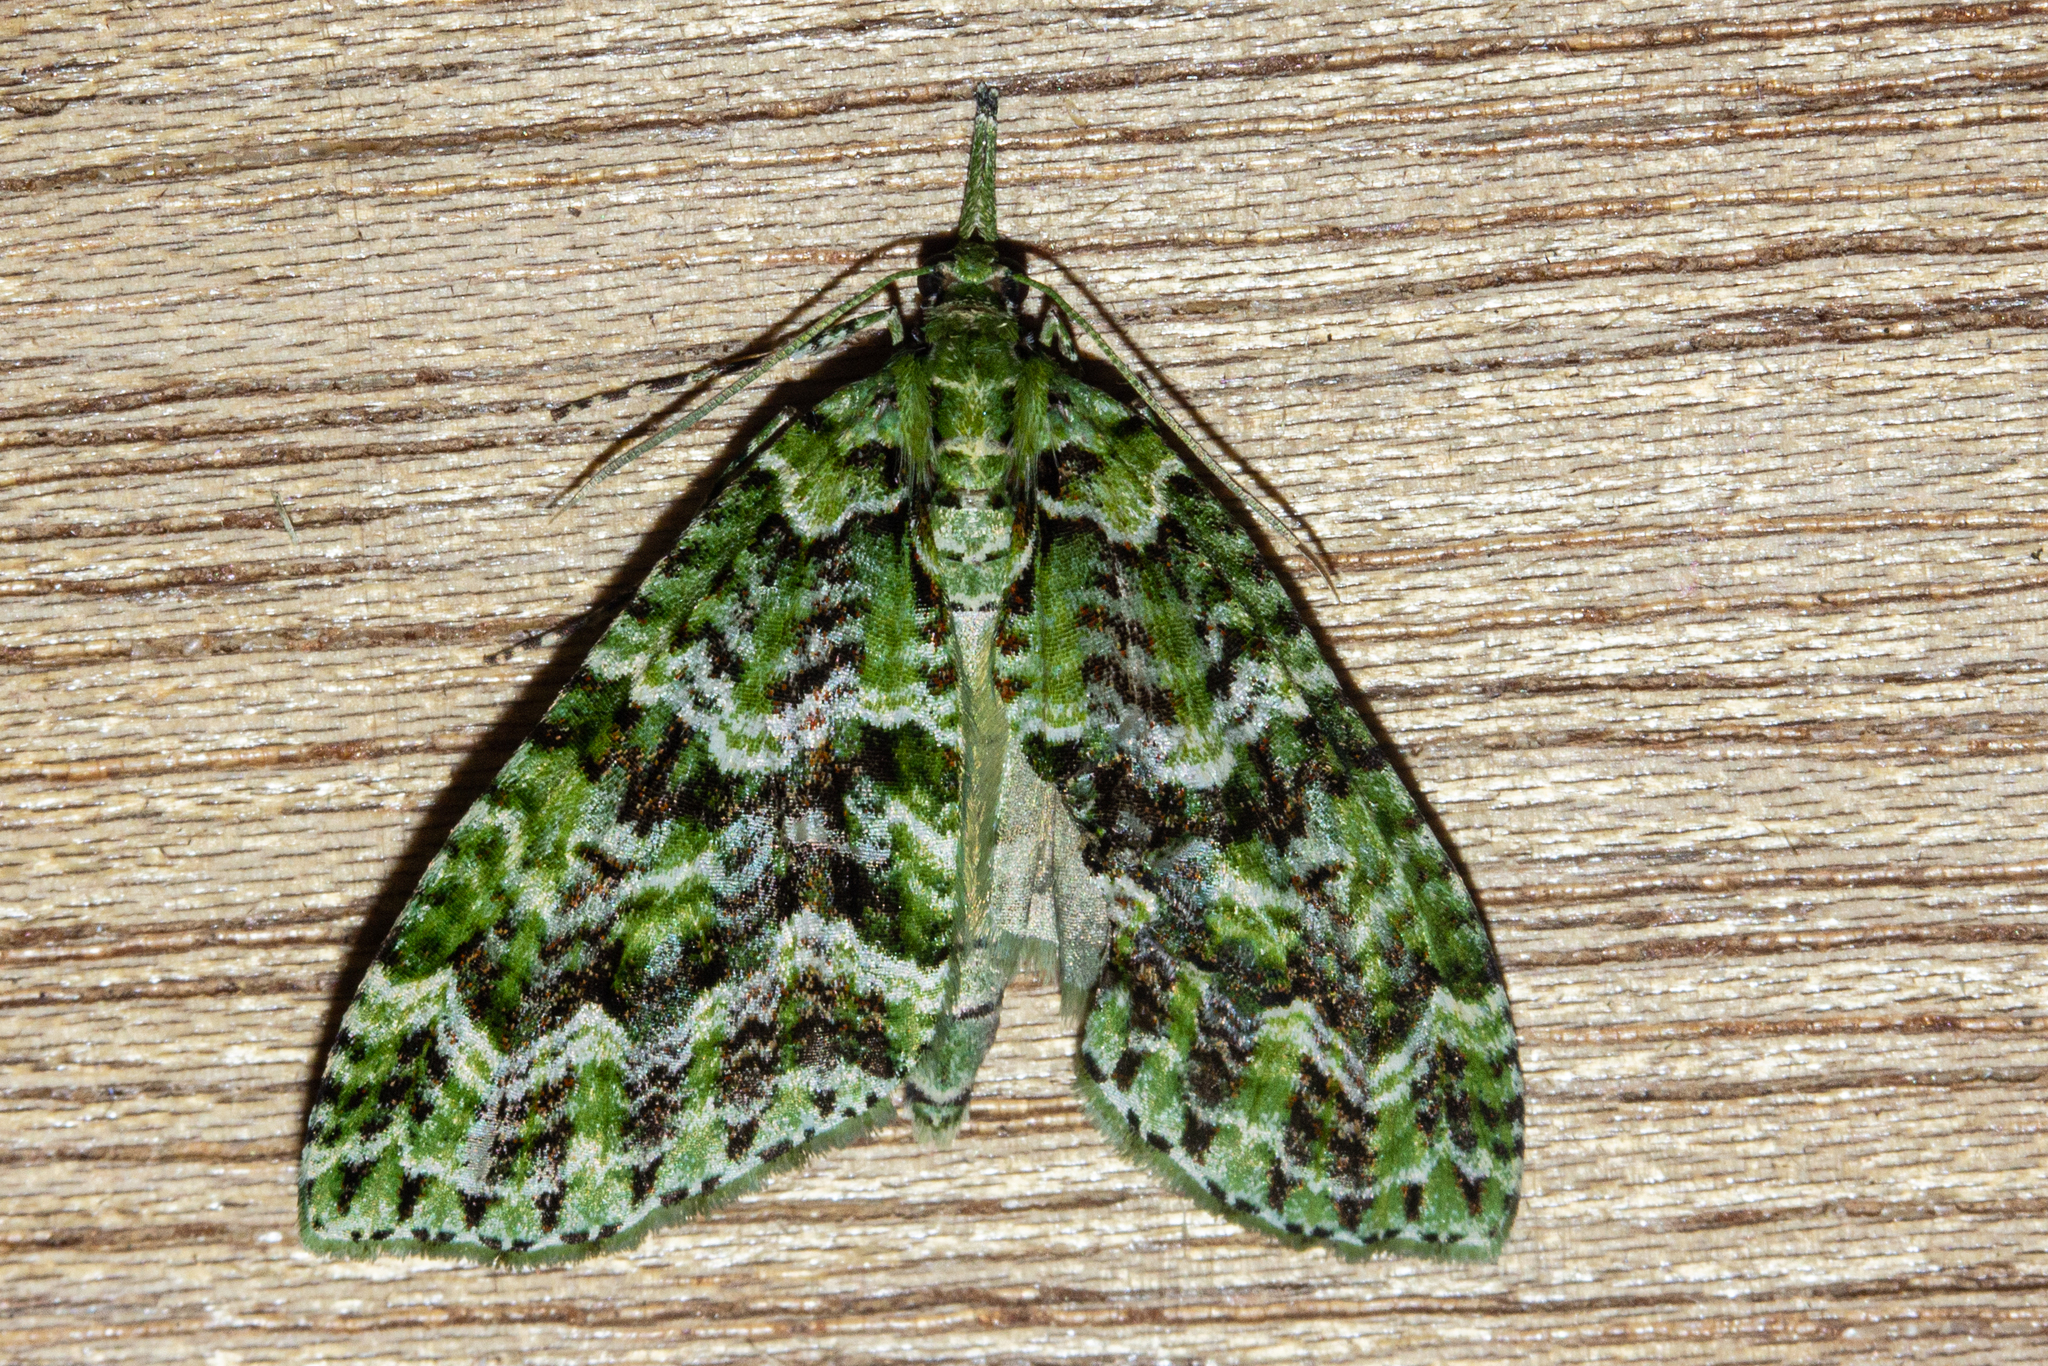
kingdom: Animalia
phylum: Arthropoda
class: Insecta
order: Lepidoptera
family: Geometridae
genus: Tatosoma
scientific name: Tatosoma tipulata
